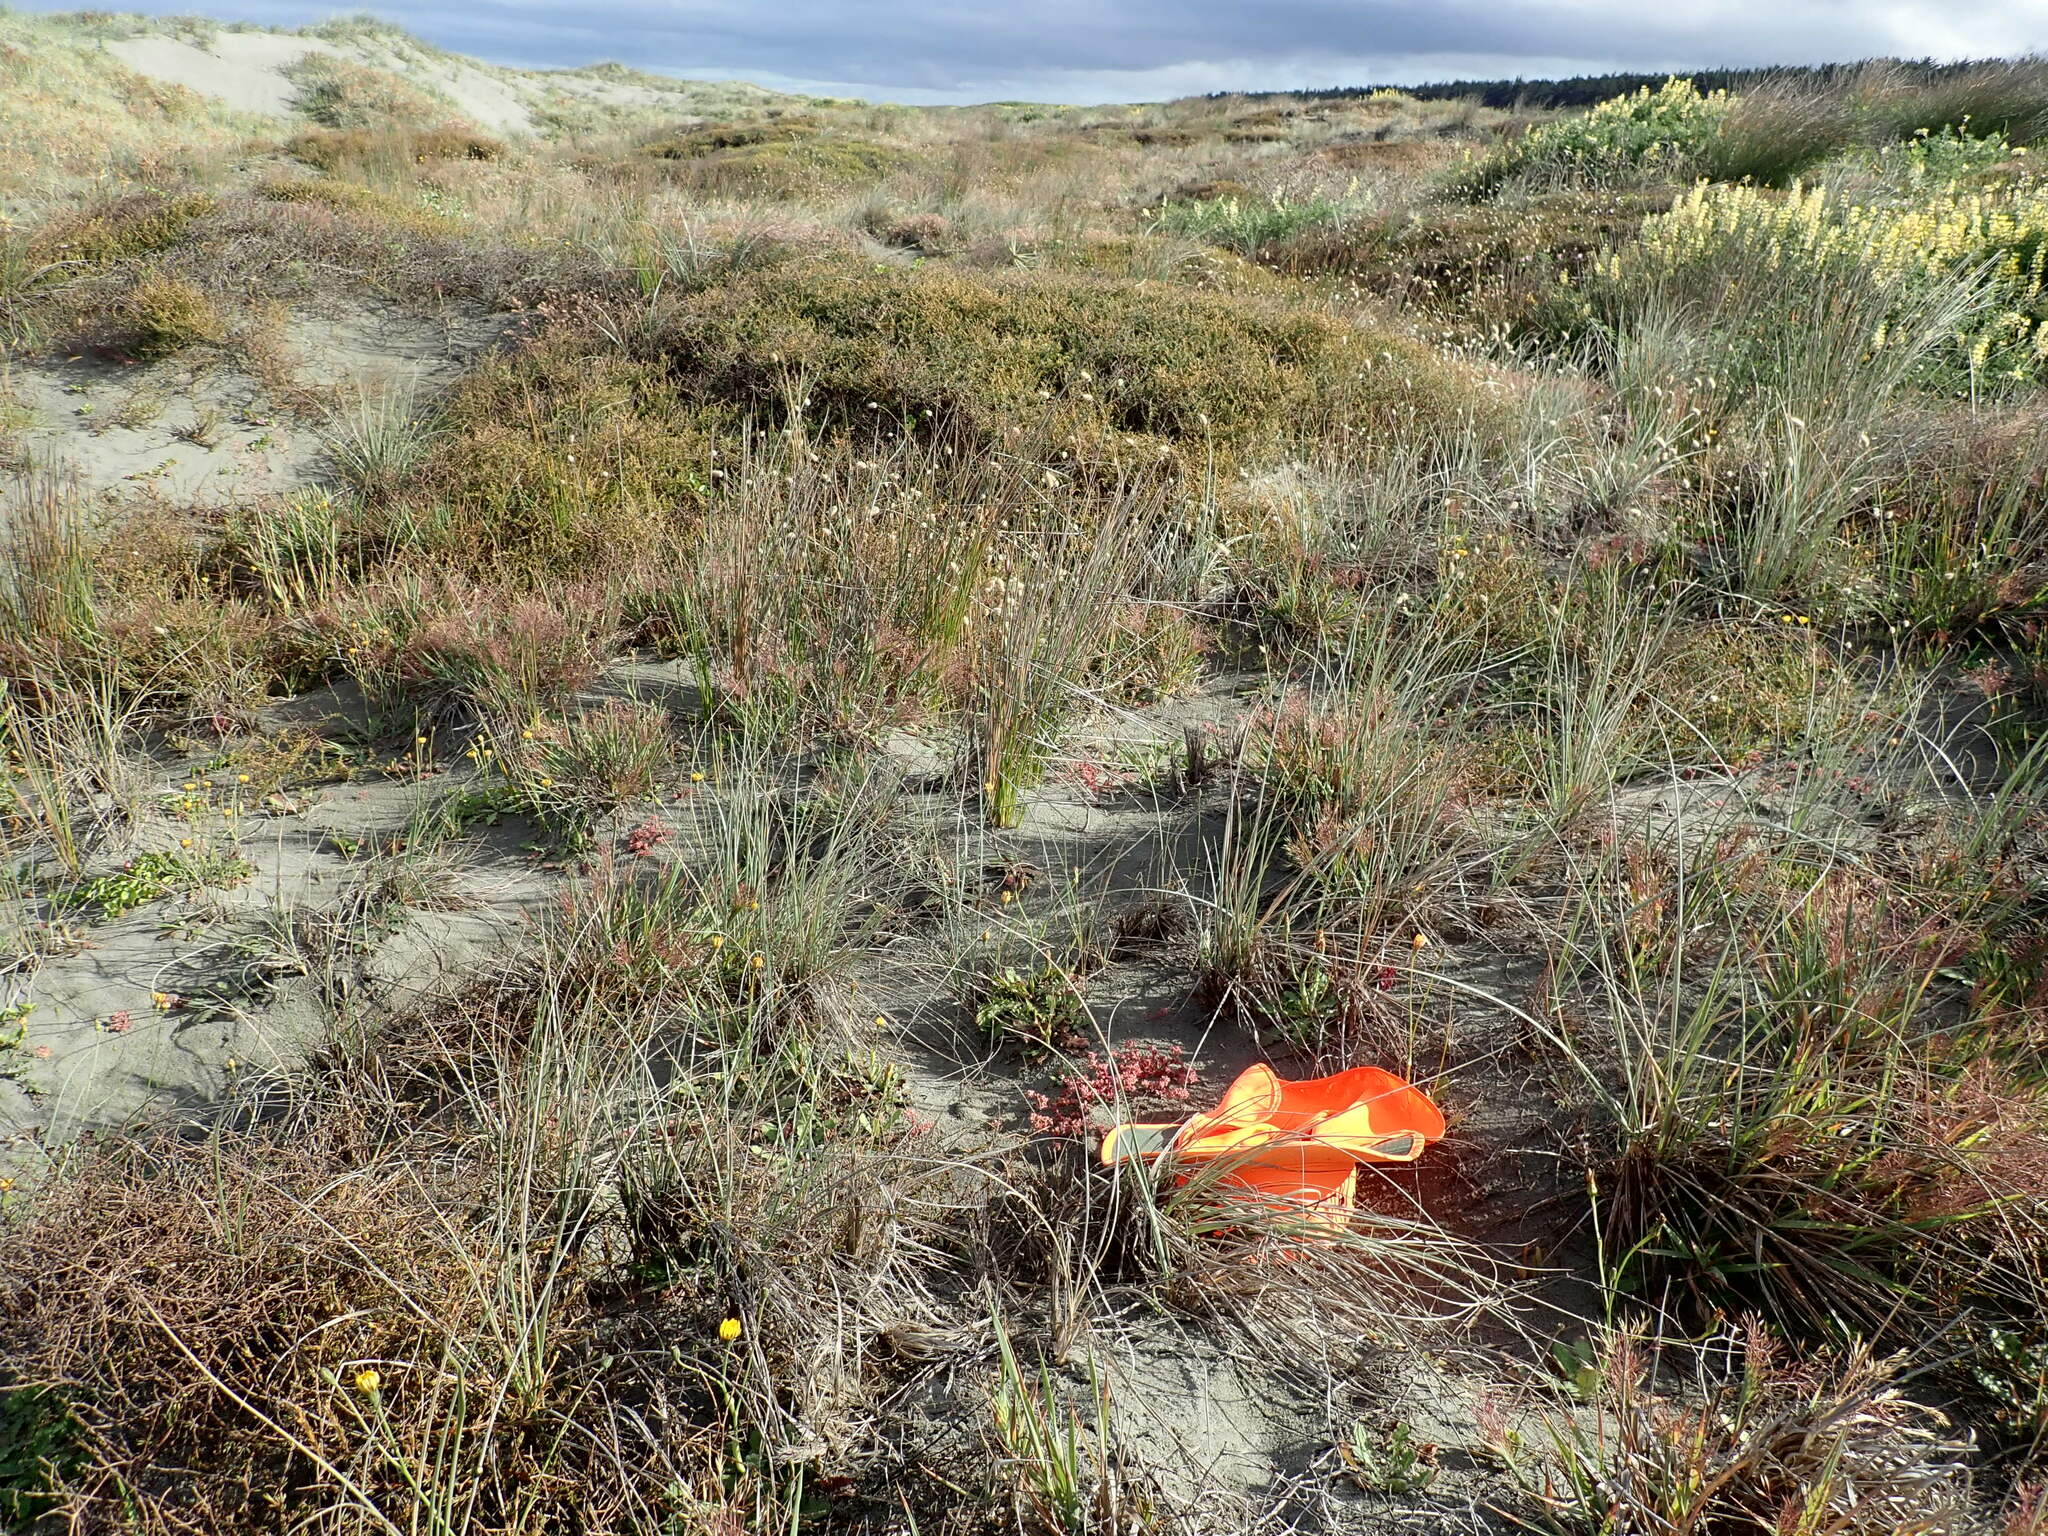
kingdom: Plantae
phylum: Tracheophyta
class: Magnoliopsida
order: Caryophyllales
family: Caryophyllaceae
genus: Polycarpon
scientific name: Polycarpon tetraphyllum
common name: Four-leaved all-seed
